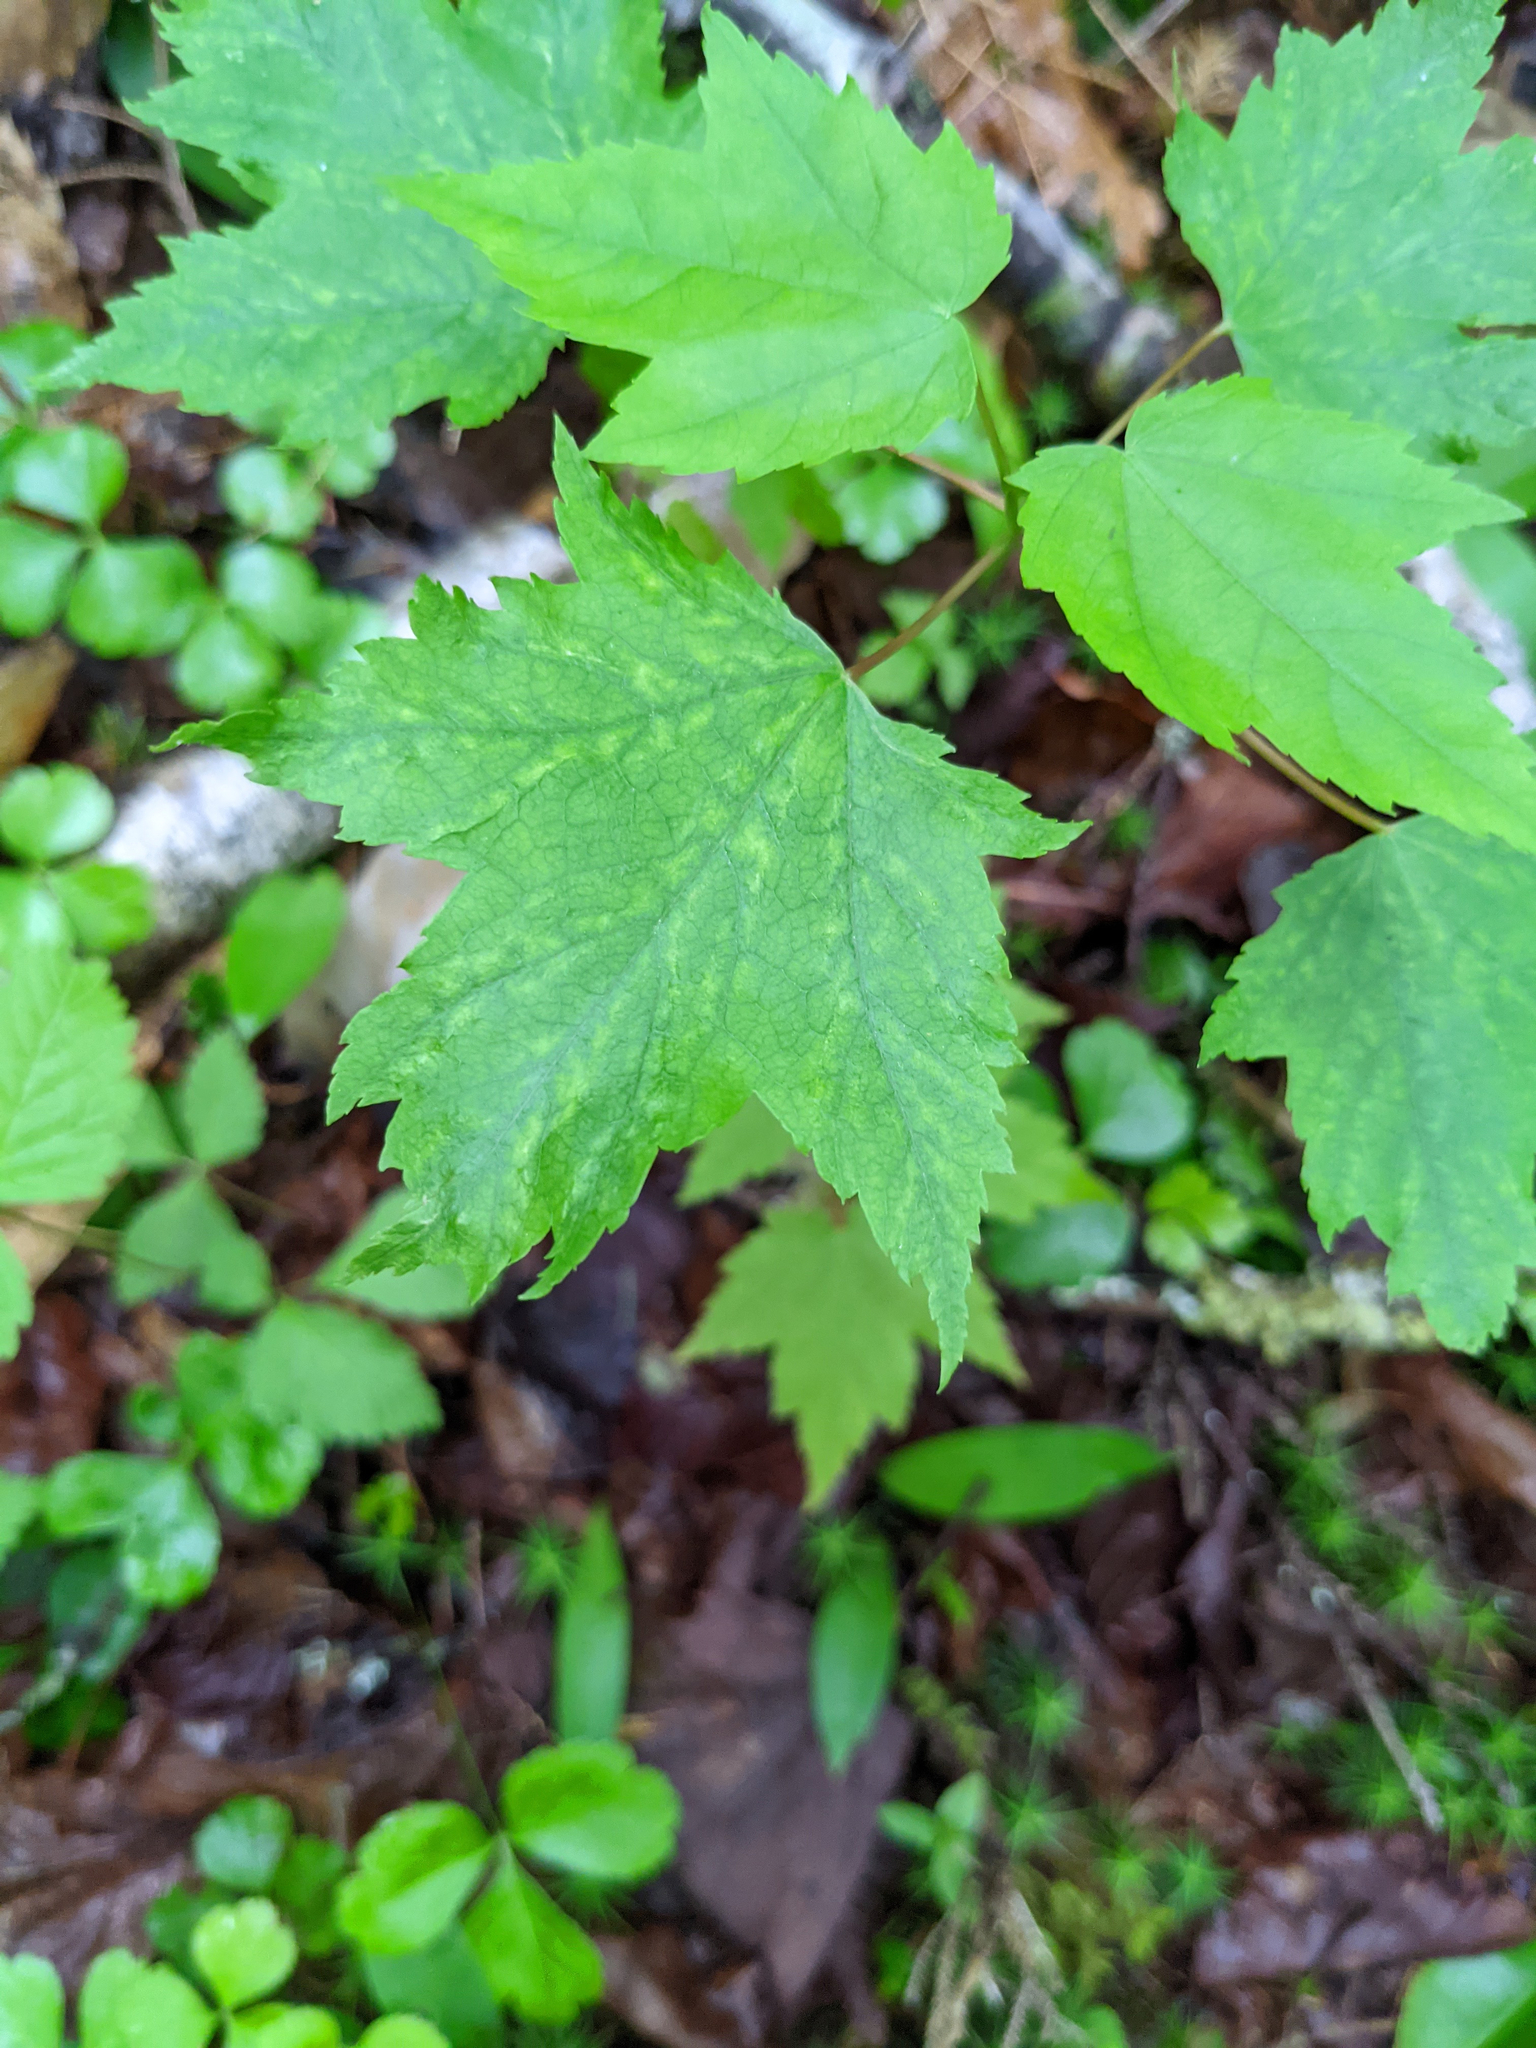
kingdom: Plantae
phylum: Tracheophyta
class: Magnoliopsida
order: Sapindales
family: Sapindaceae
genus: Acer
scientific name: Acer rubrum
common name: Red maple
